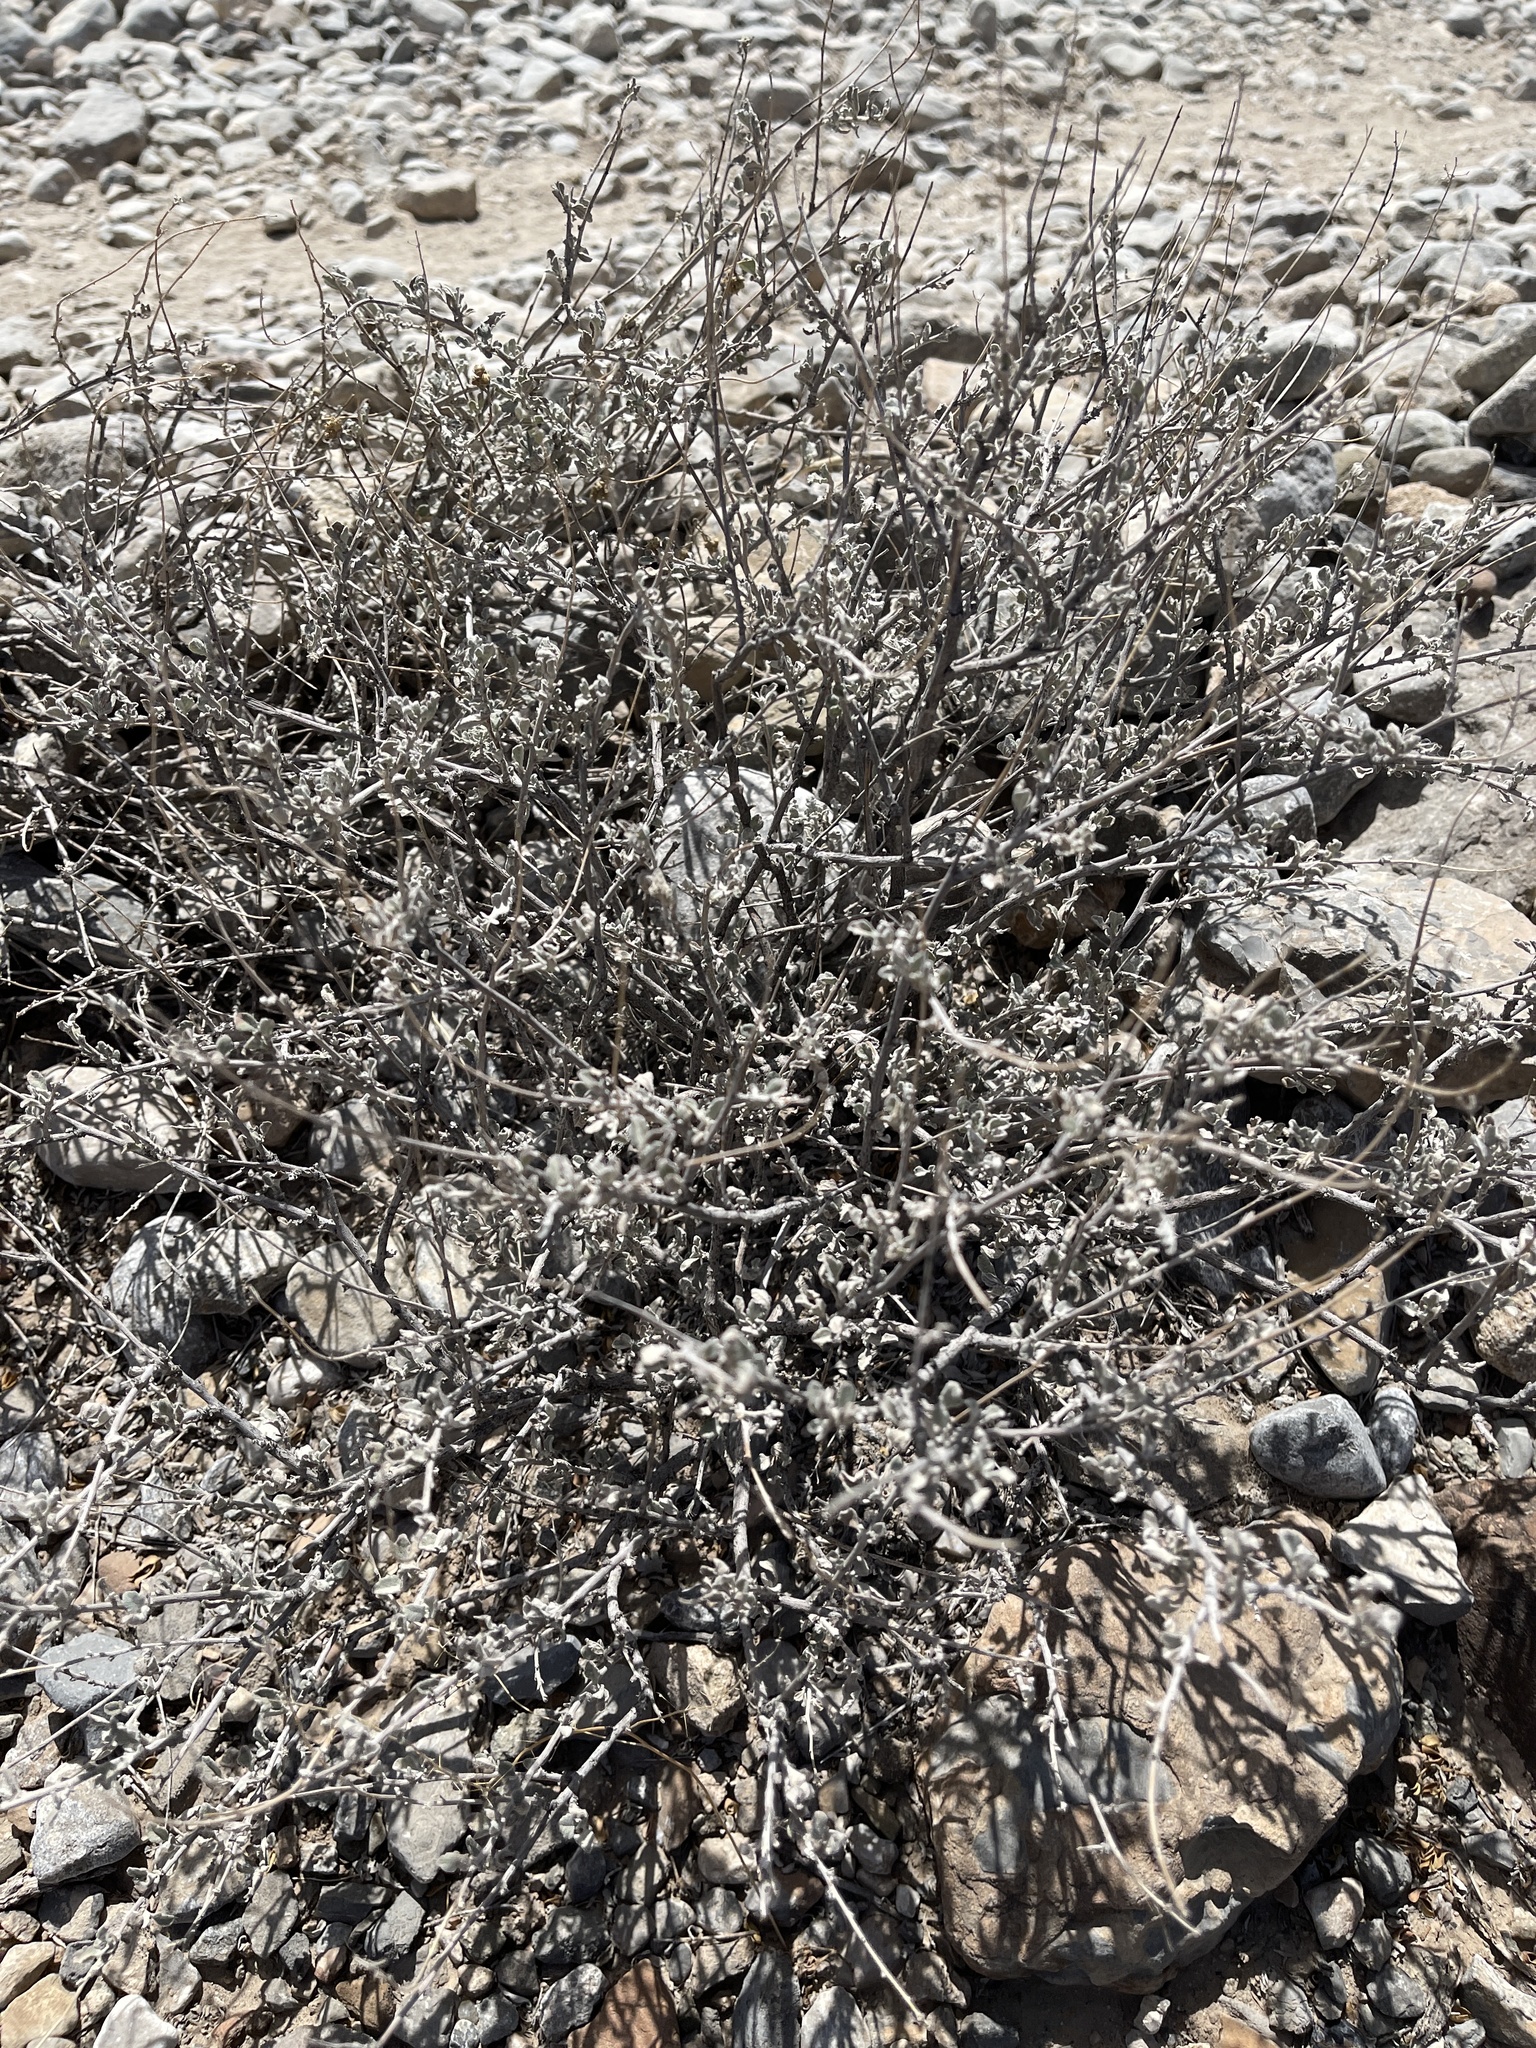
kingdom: Plantae
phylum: Tracheophyta
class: Magnoliopsida
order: Boraginales
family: Ehretiaceae
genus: Tiquilia
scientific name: Tiquilia canescens
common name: Hairy tiquilia
